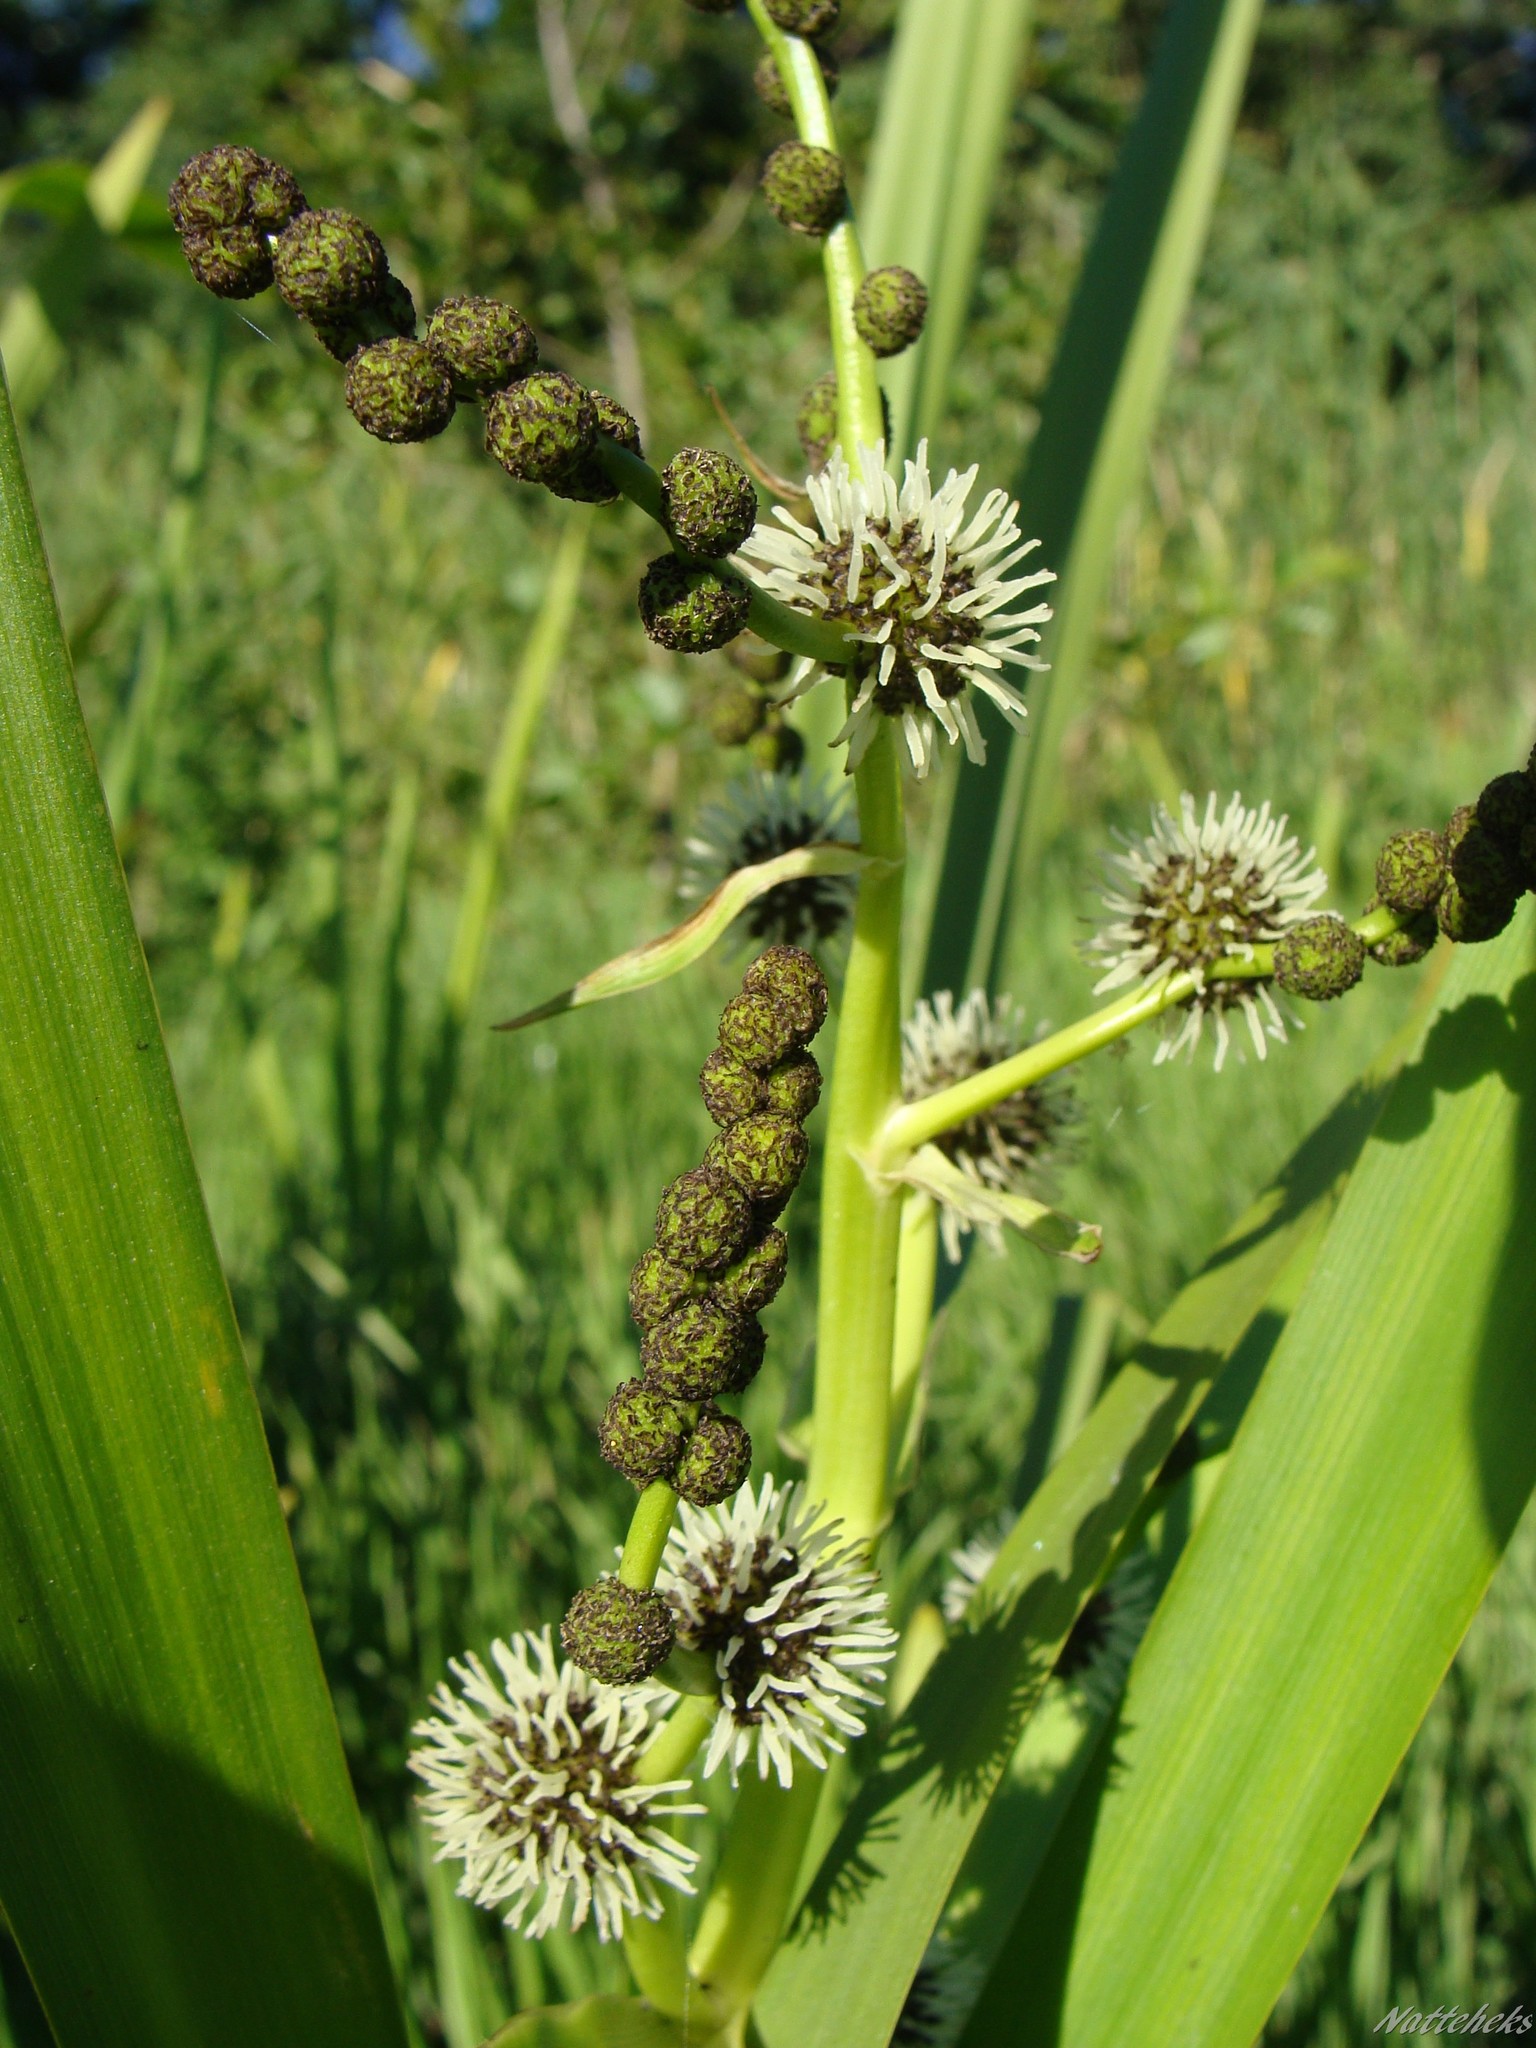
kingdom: Plantae
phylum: Tracheophyta
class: Liliopsida
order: Poales
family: Typhaceae
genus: Sparganium
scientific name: Sparganium erectum
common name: Branched bur-reed
